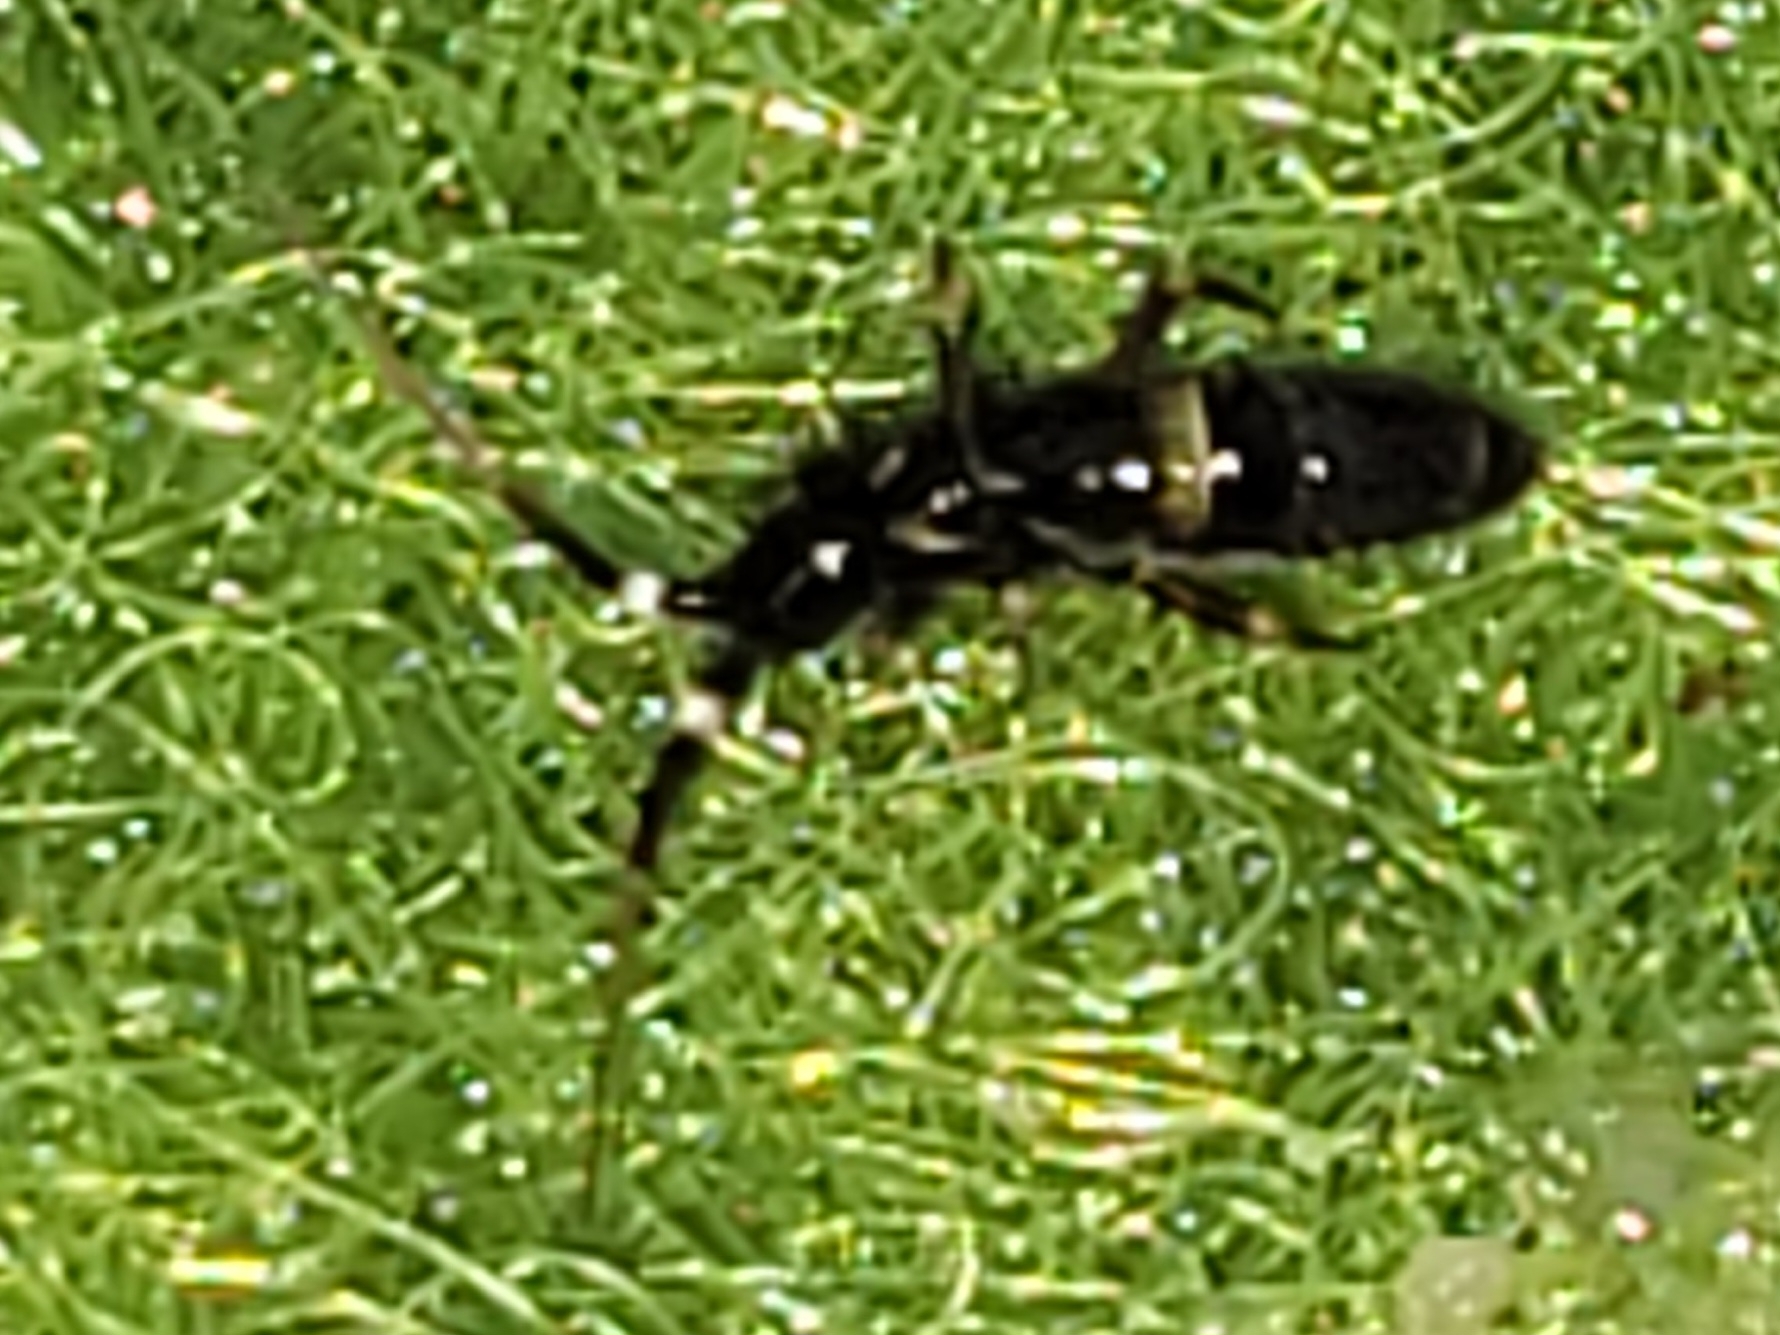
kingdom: Animalia
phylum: Arthropoda
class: Collembola
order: Entomobryomorpha
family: Orchesellidae
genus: Orchesella
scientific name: Orchesella cincta
